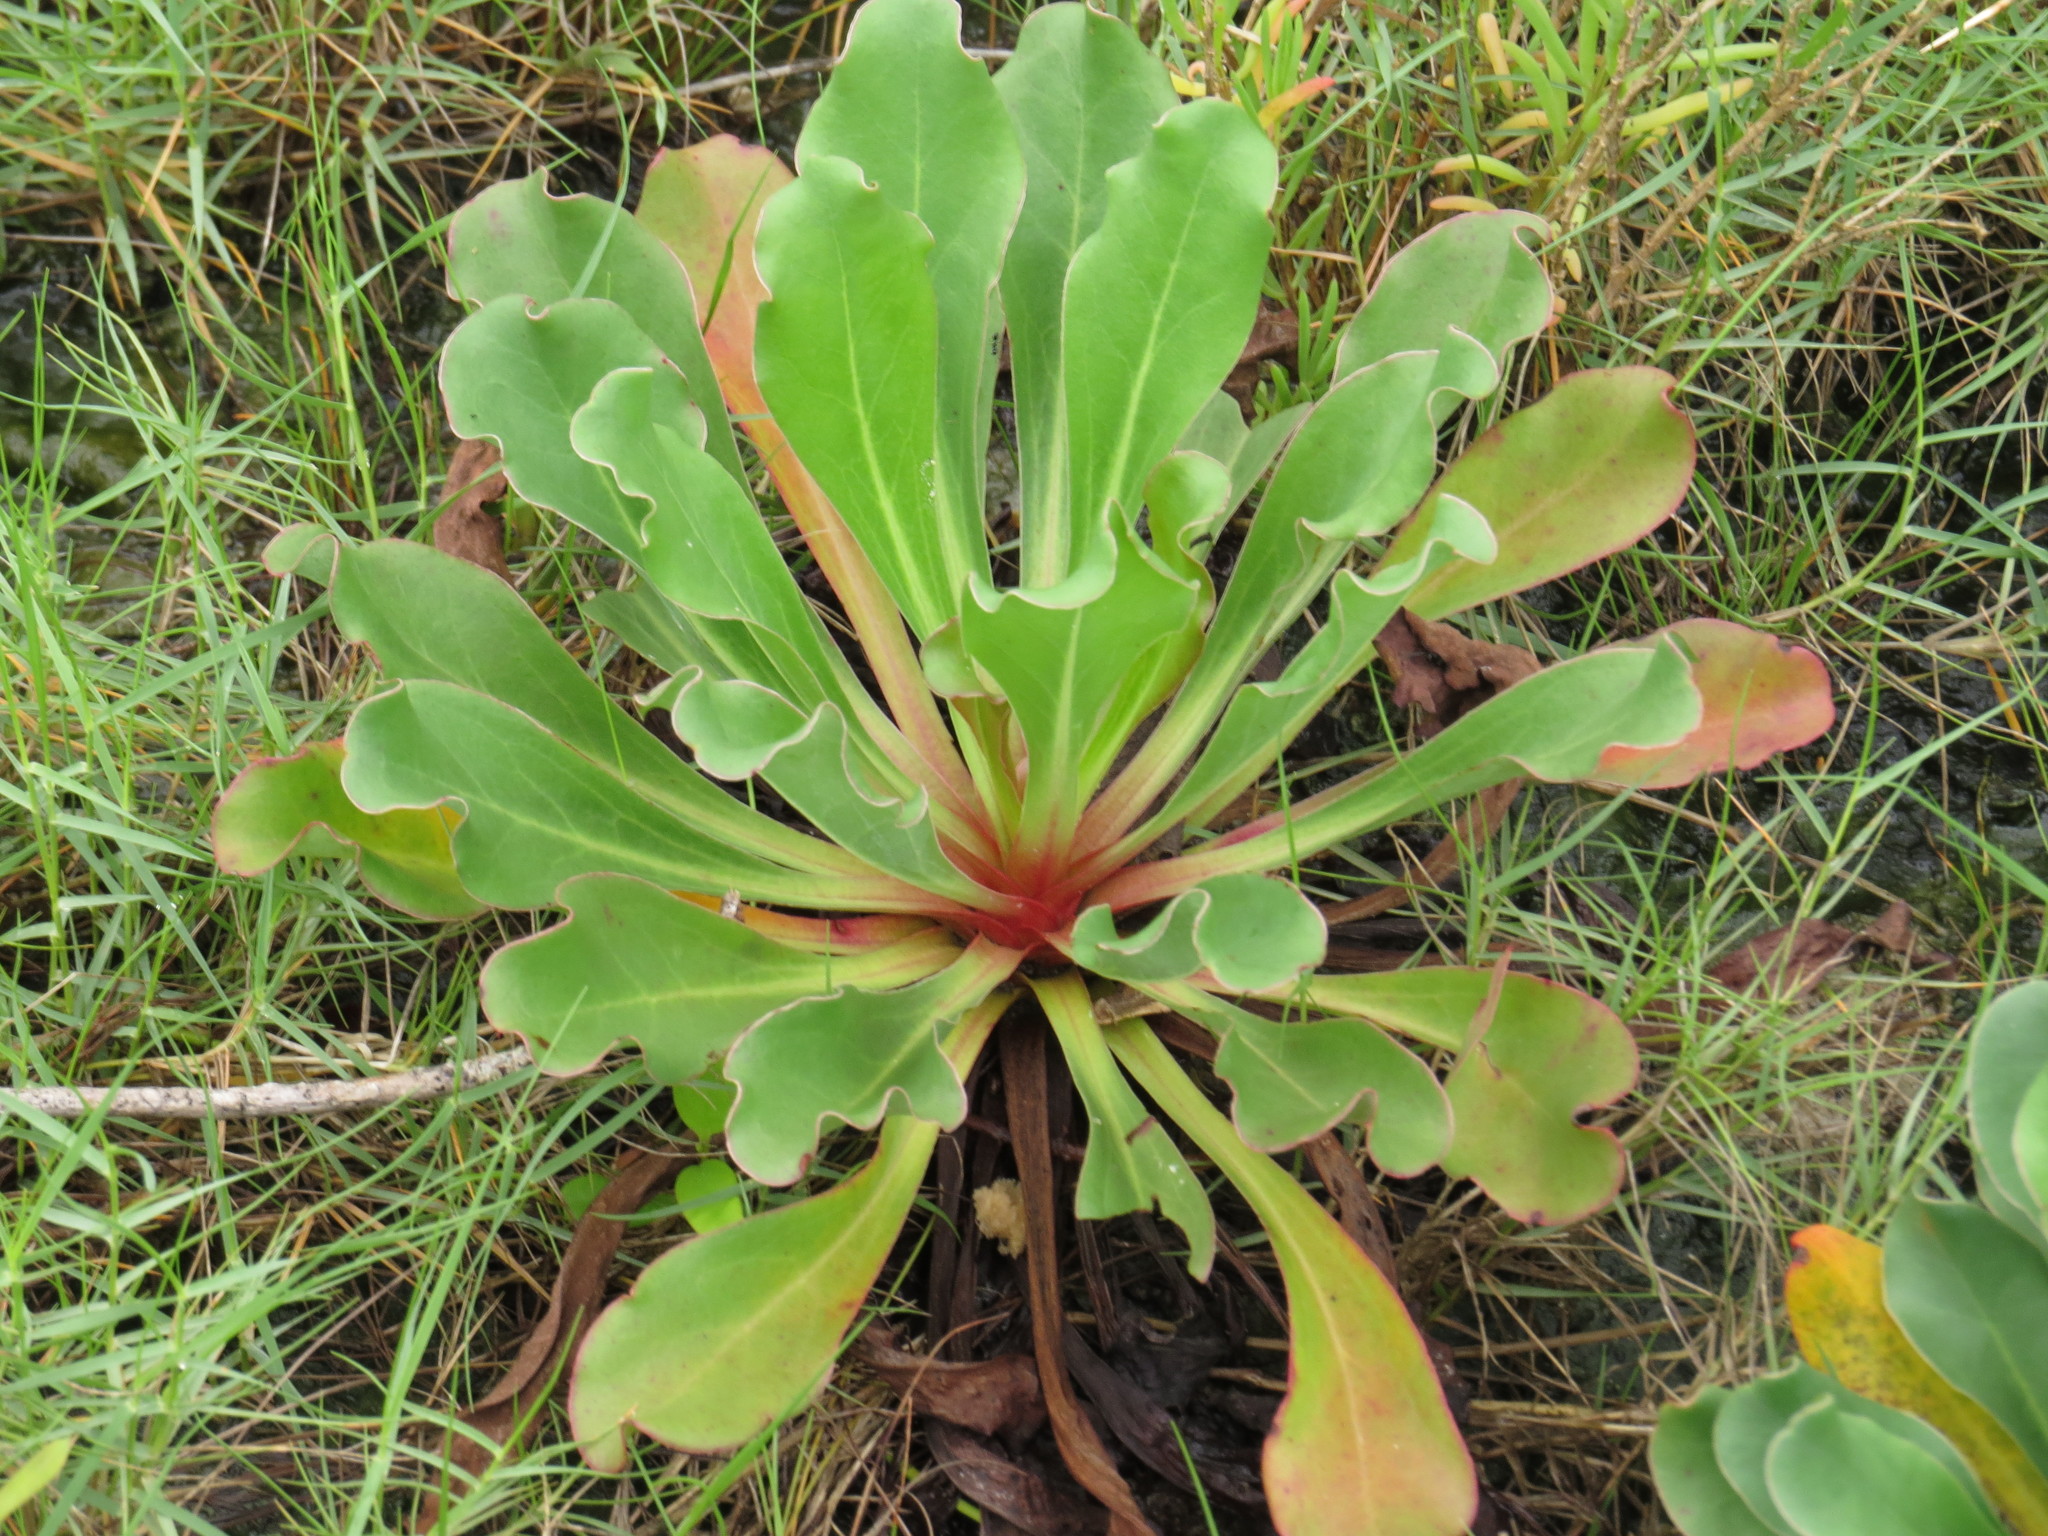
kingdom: Plantae
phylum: Tracheophyta
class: Magnoliopsida
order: Caryophyllales
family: Plumbaginaceae
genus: Limonium
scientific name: Limonium australe
